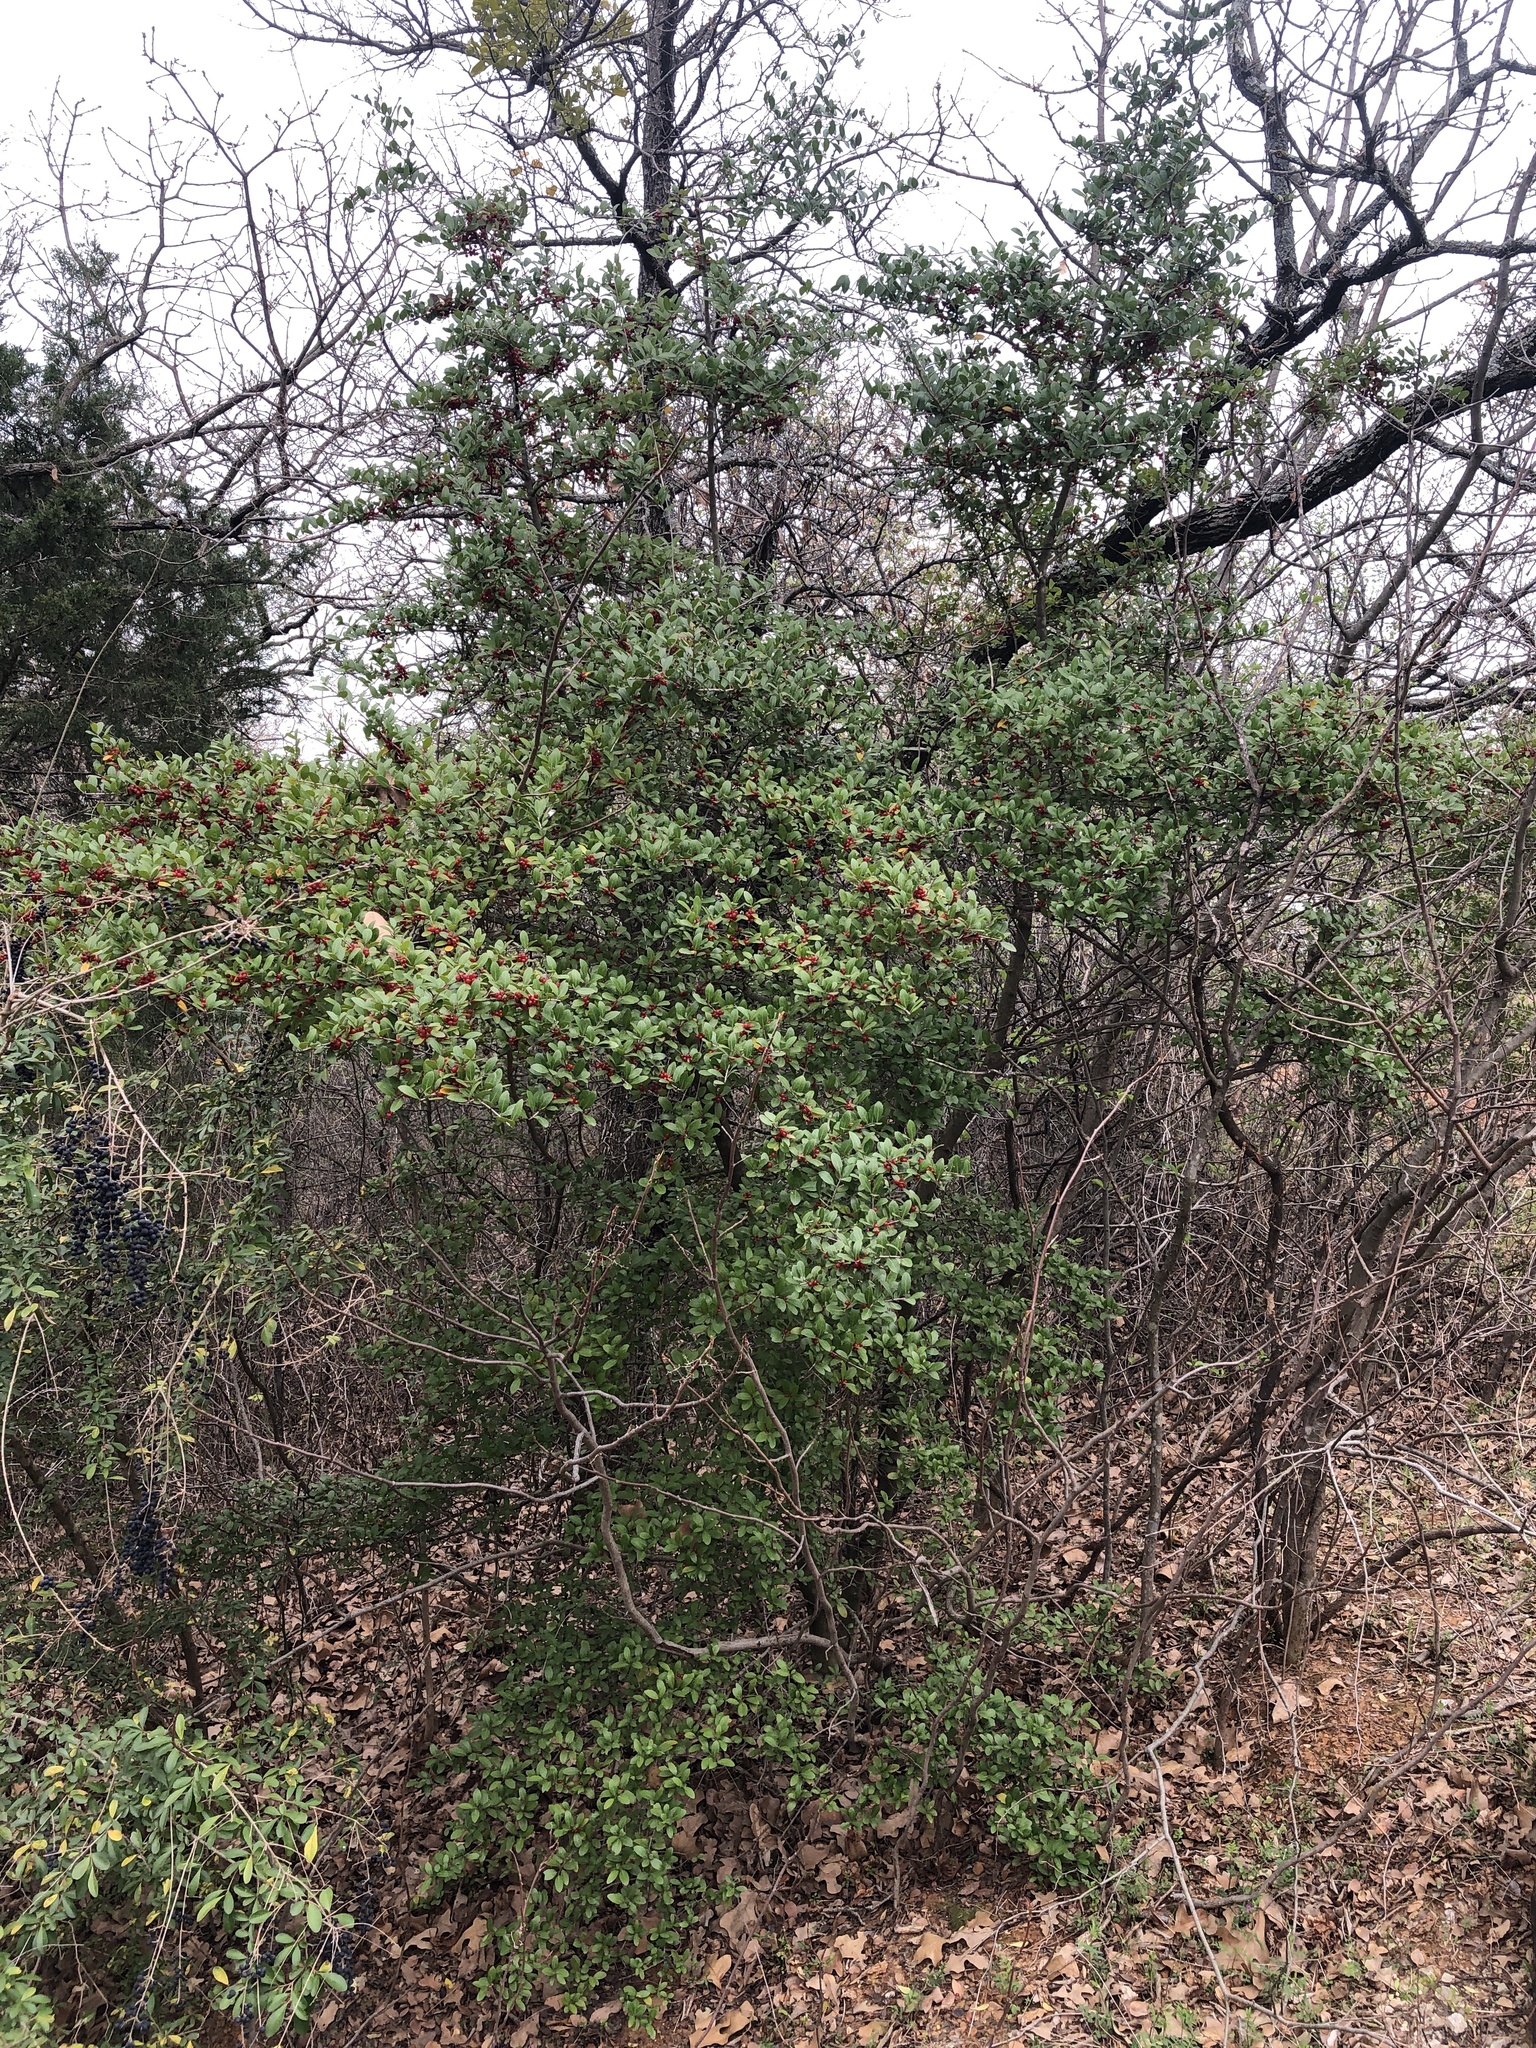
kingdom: Plantae
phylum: Tracheophyta
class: Magnoliopsida
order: Aquifoliales
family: Aquifoliaceae
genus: Ilex
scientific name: Ilex vomitoria
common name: Yaupon holly
